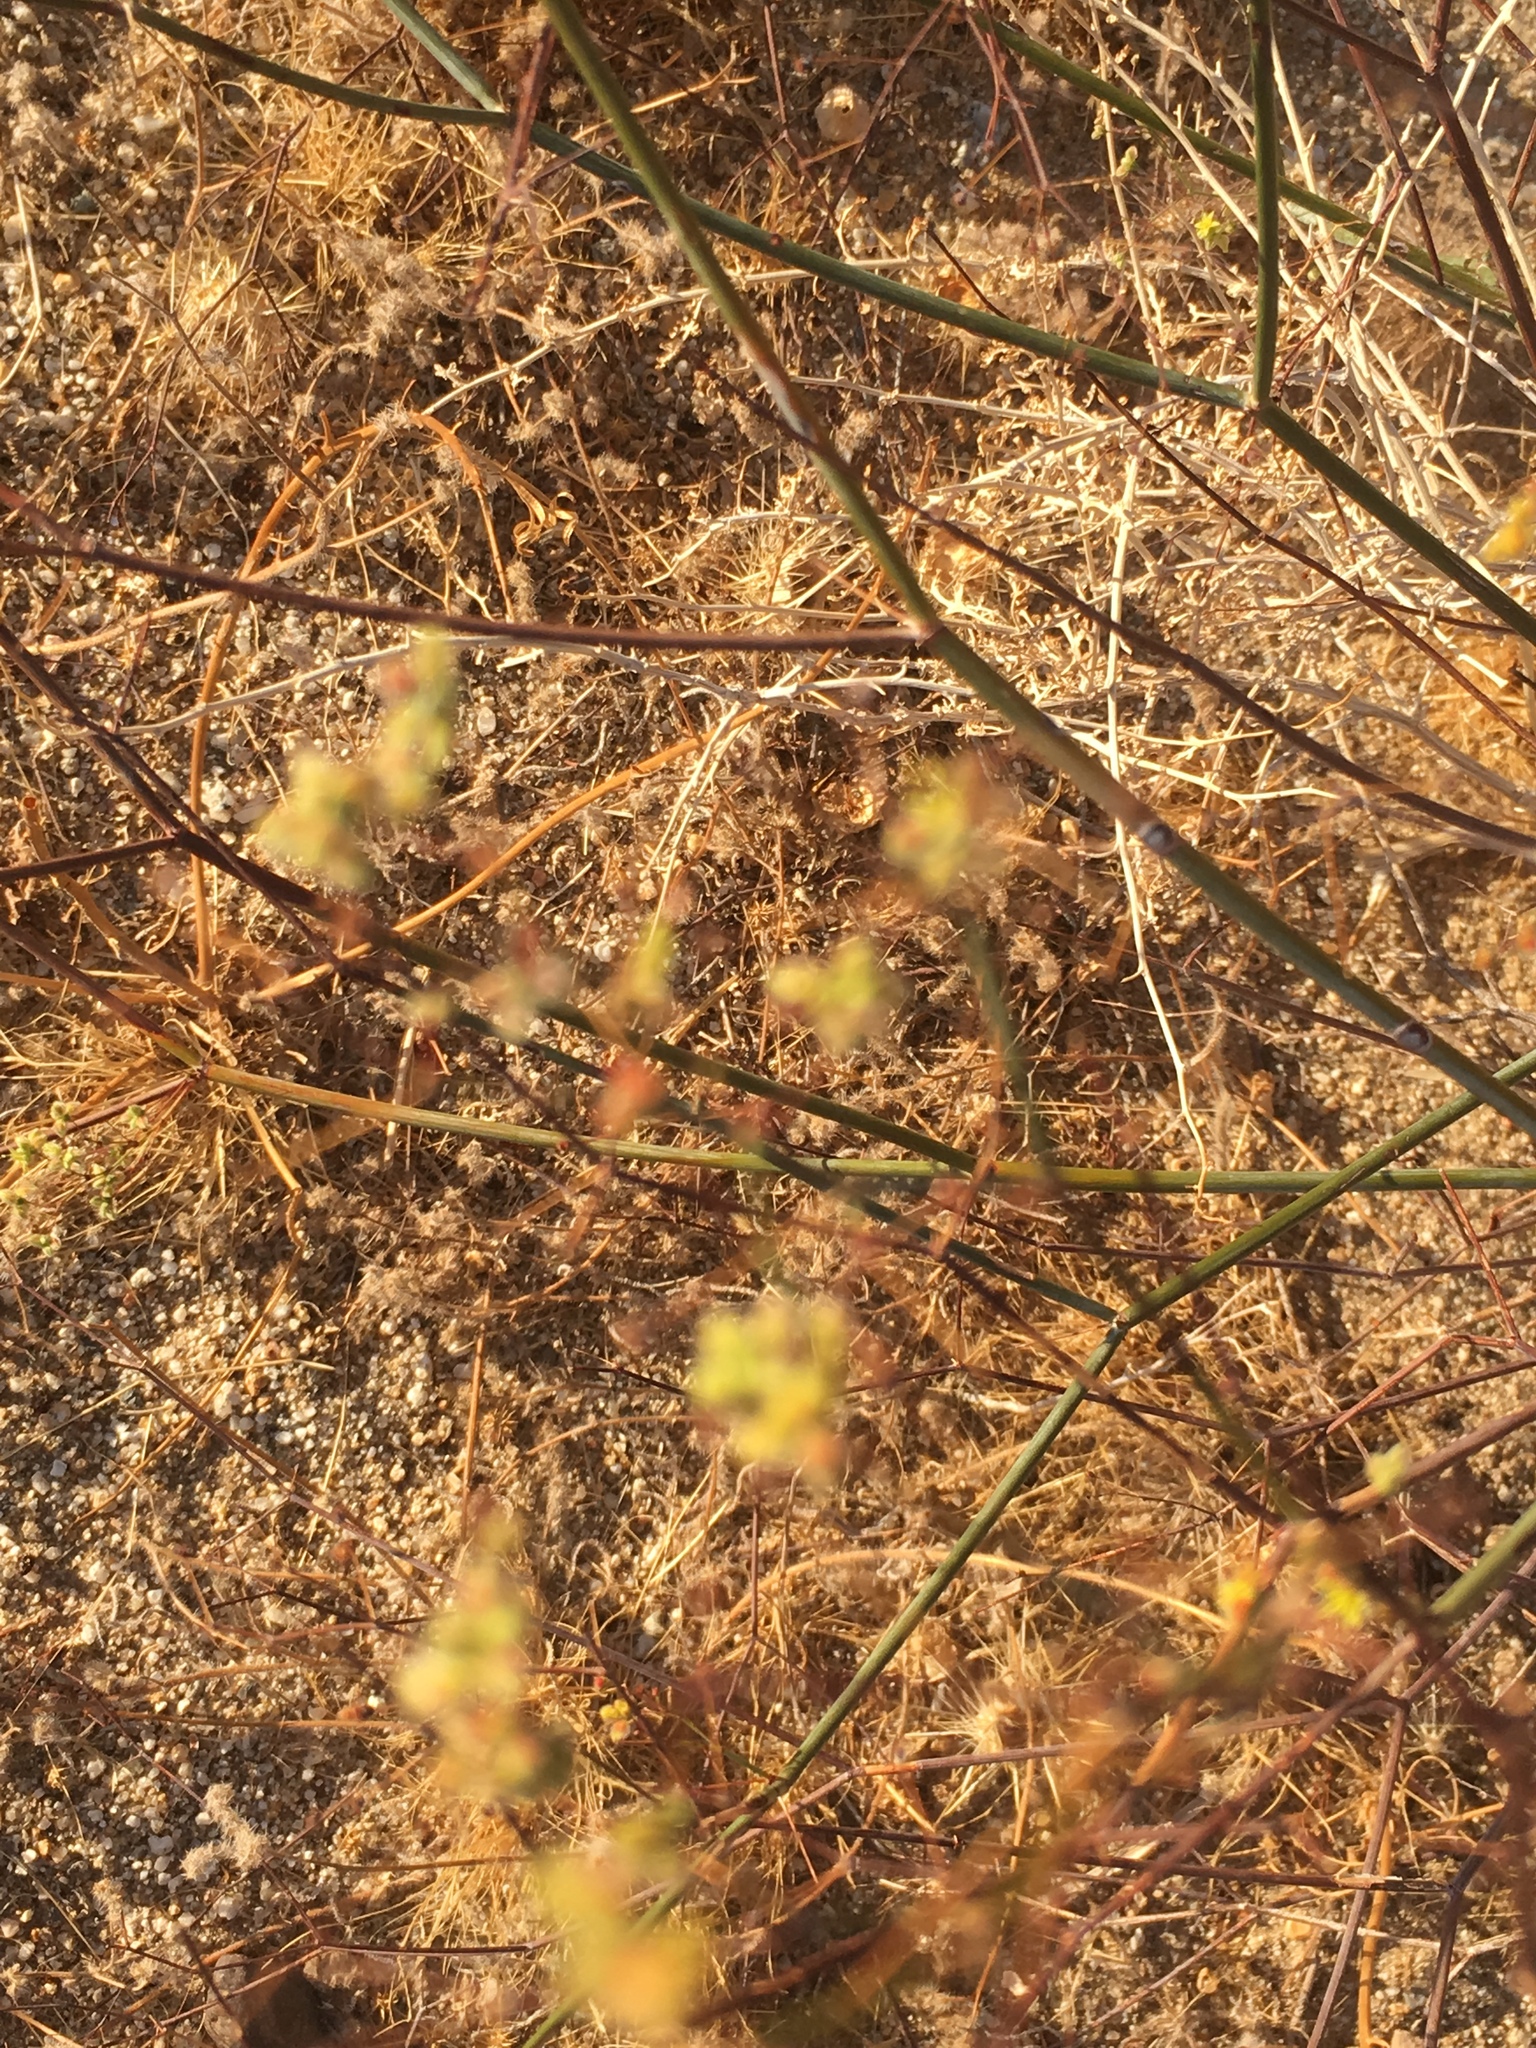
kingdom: Plantae
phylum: Tracheophyta
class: Magnoliopsida
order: Caryophyllales
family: Polygonaceae
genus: Eriogonum
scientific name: Eriogonum inflatum
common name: Desert trumpet
